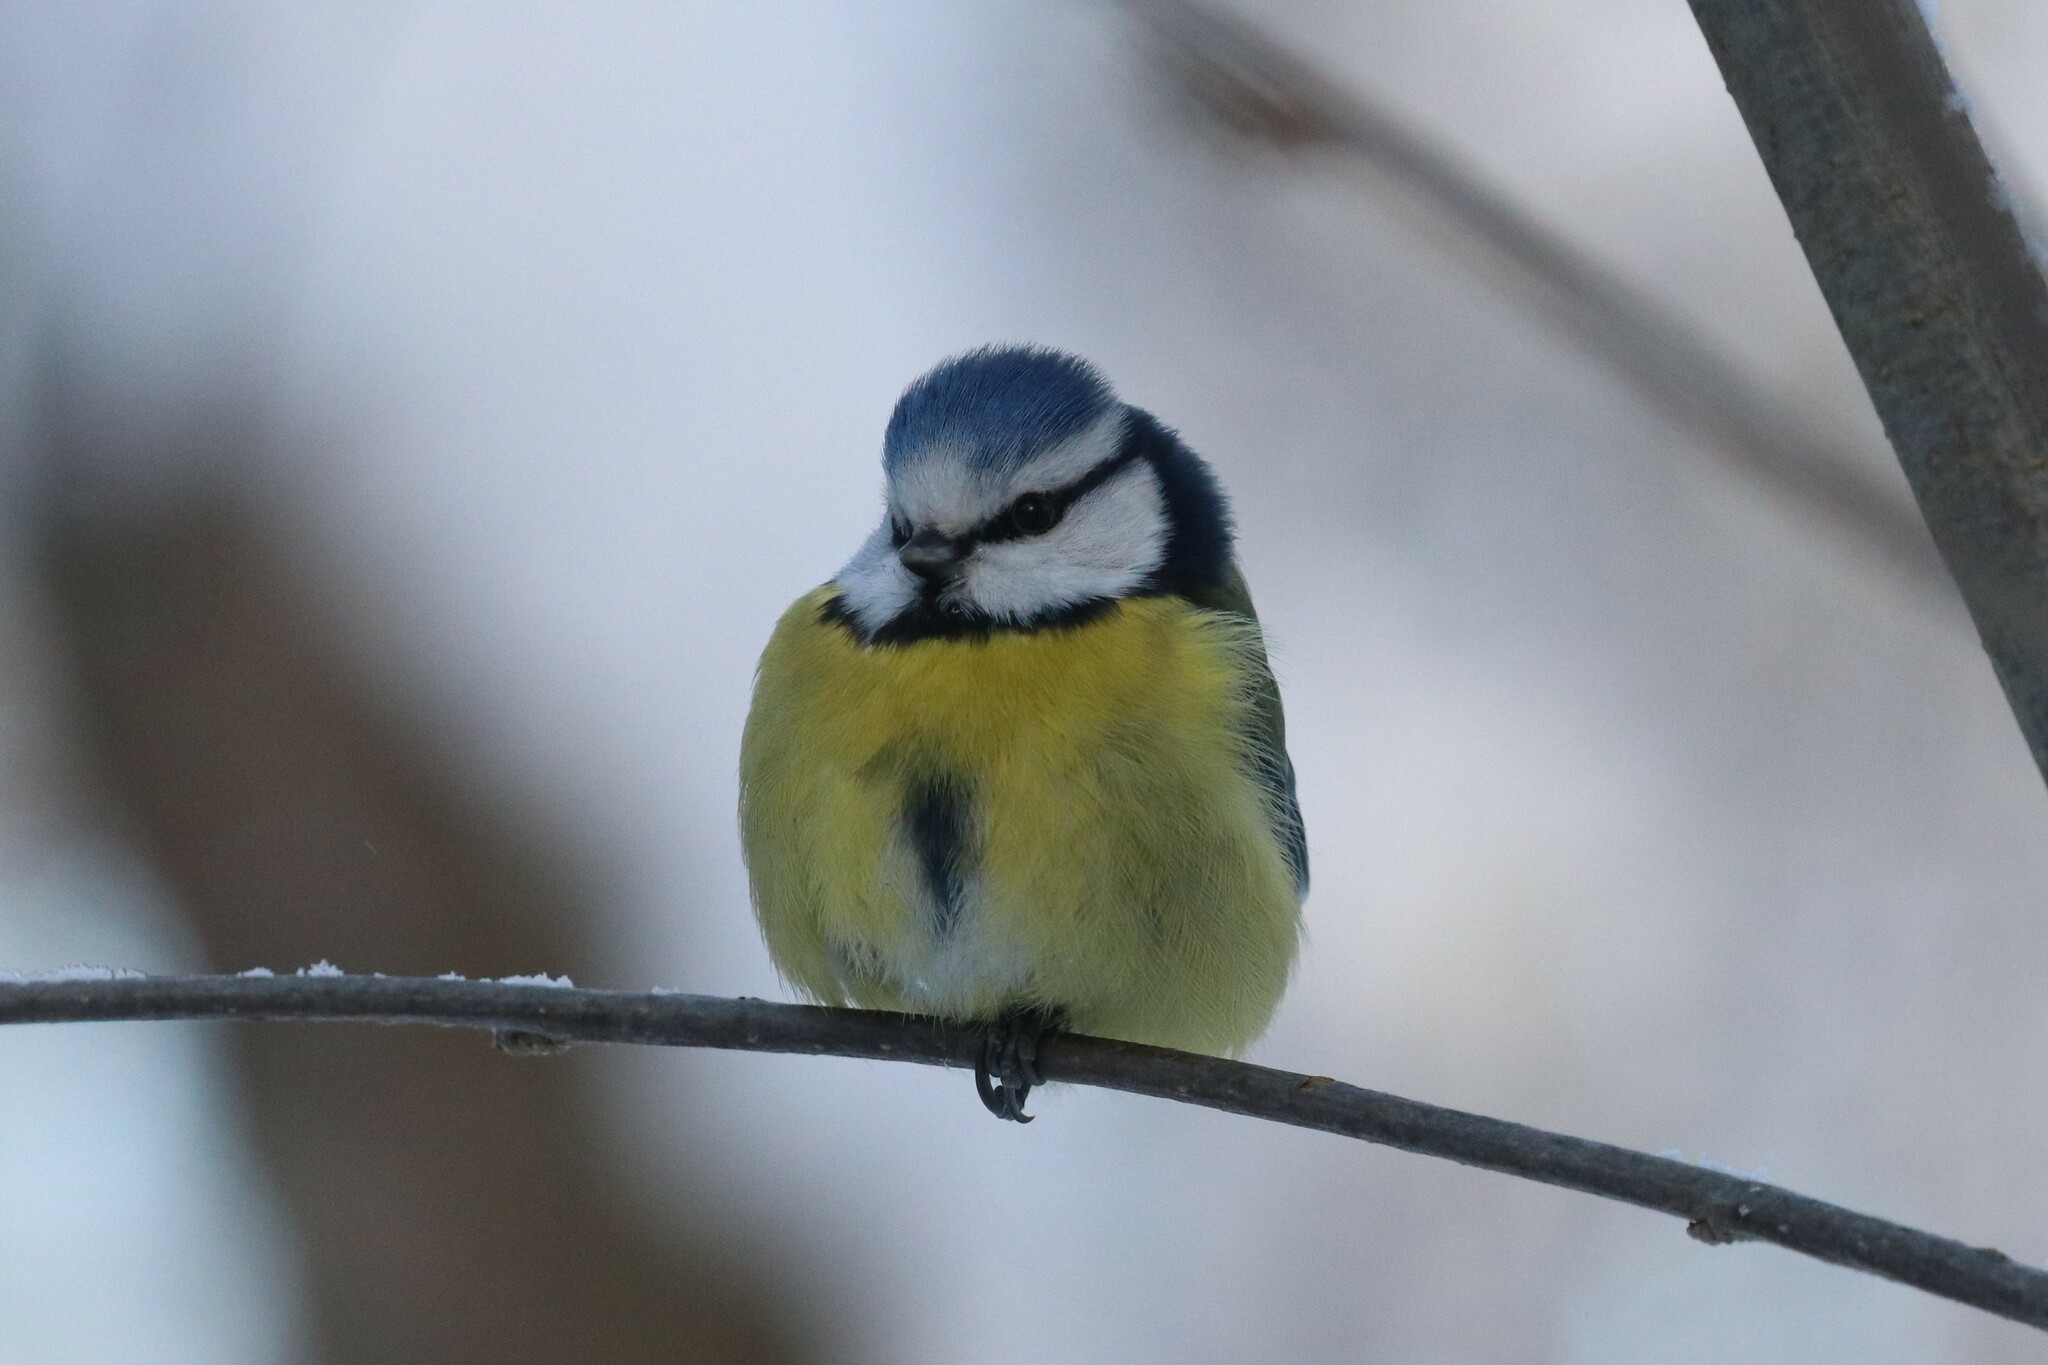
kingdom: Animalia
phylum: Chordata
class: Aves
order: Passeriformes
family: Paridae
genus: Cyanistes
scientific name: Cyanistes caeruleus
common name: Eurasian blue tit
